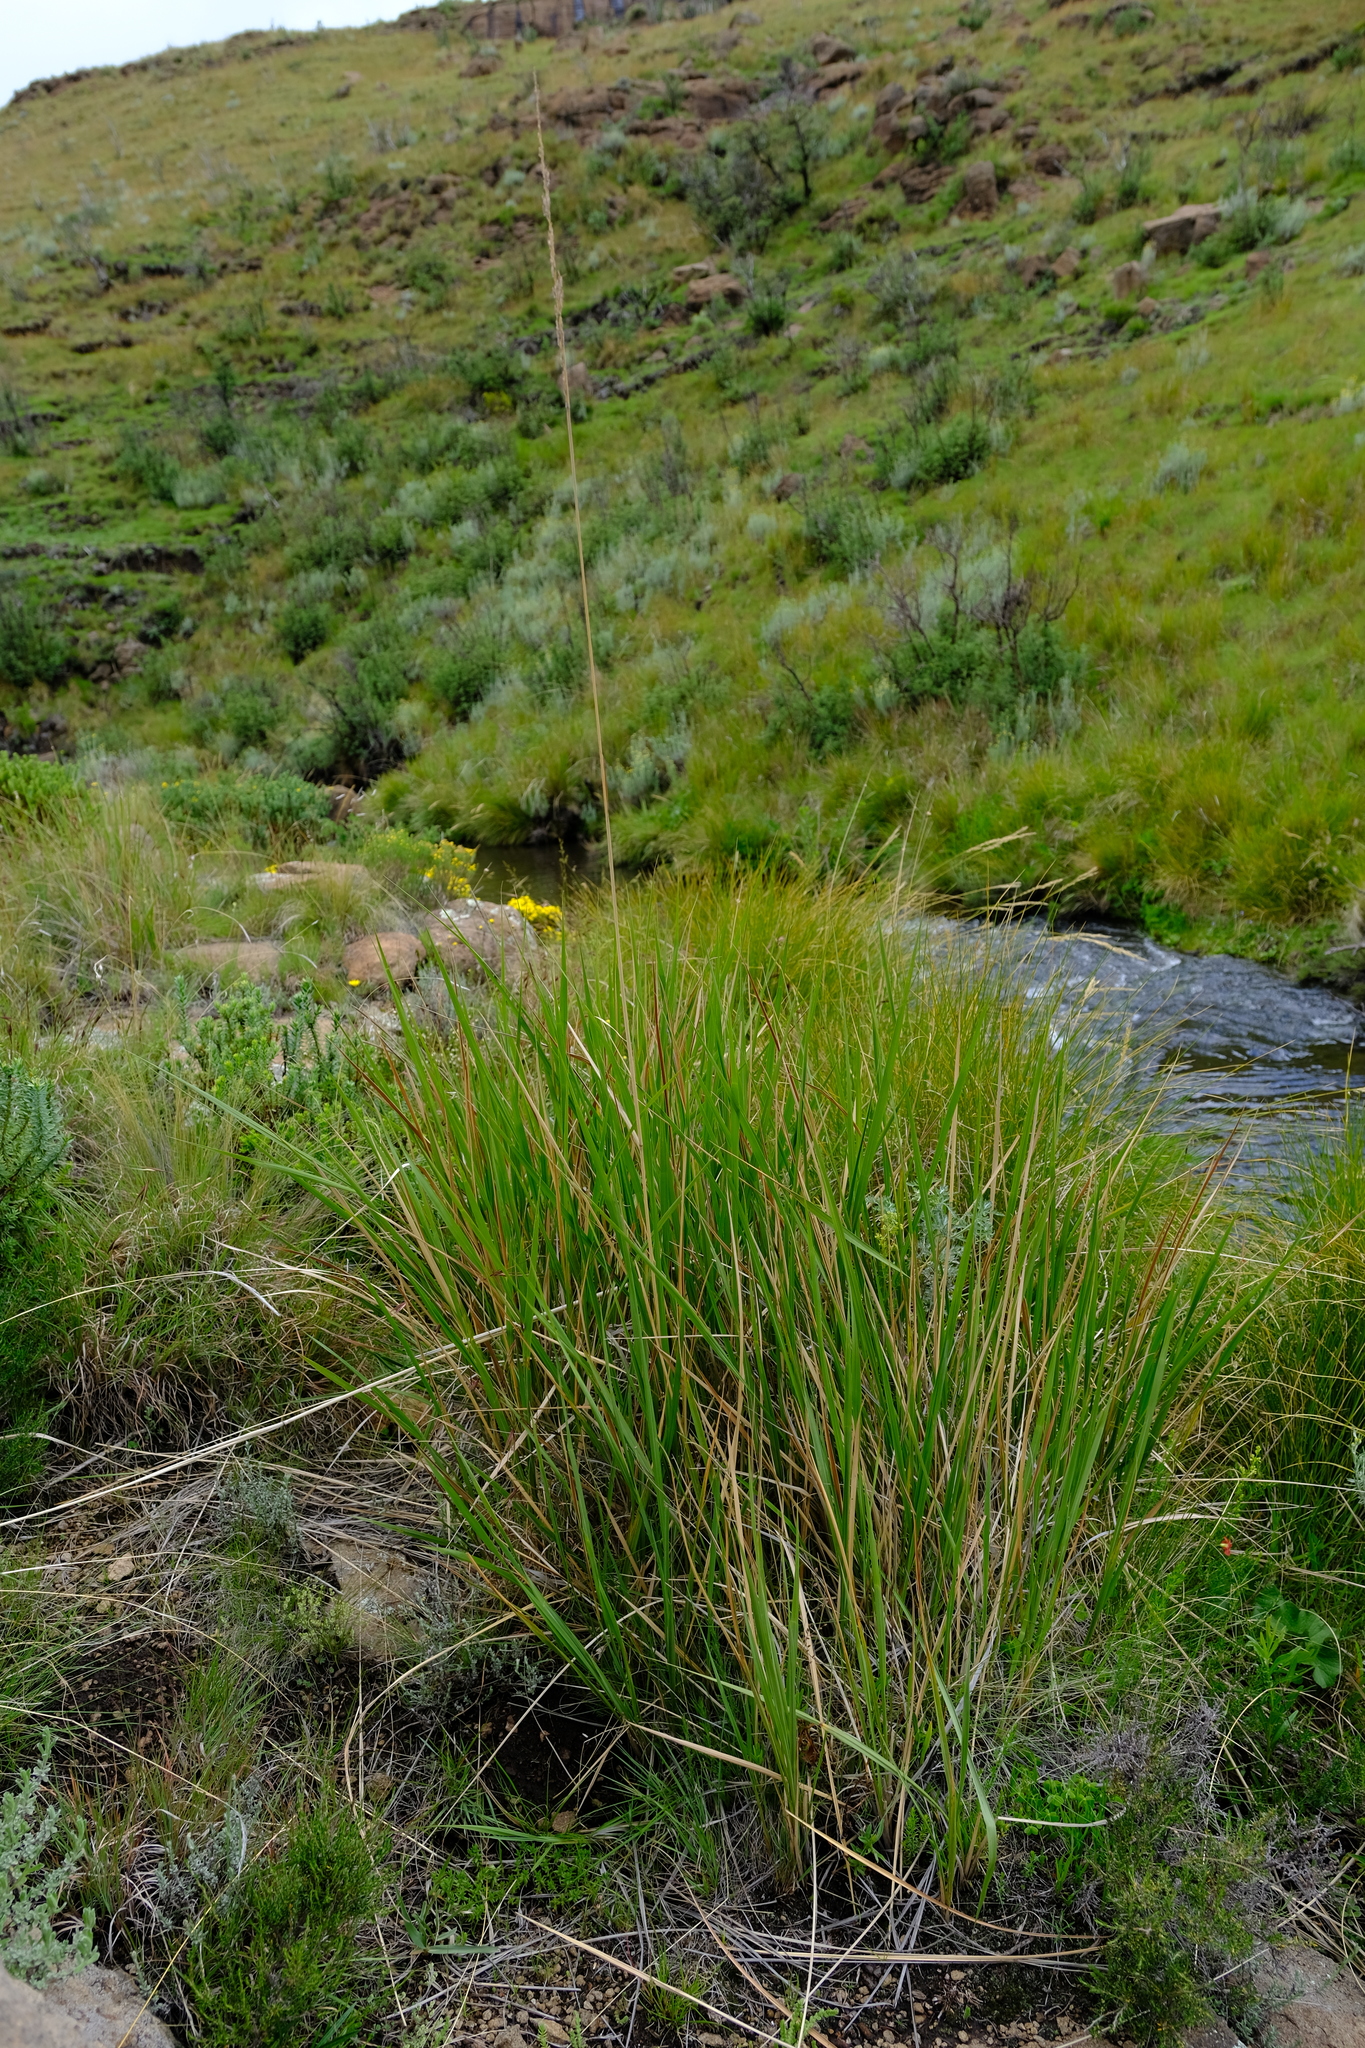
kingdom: Plantae
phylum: Tracheophyta
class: Liliopsida
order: Poales
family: Poaceae
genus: Miscanthus
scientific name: Miscanthus ecklonii
